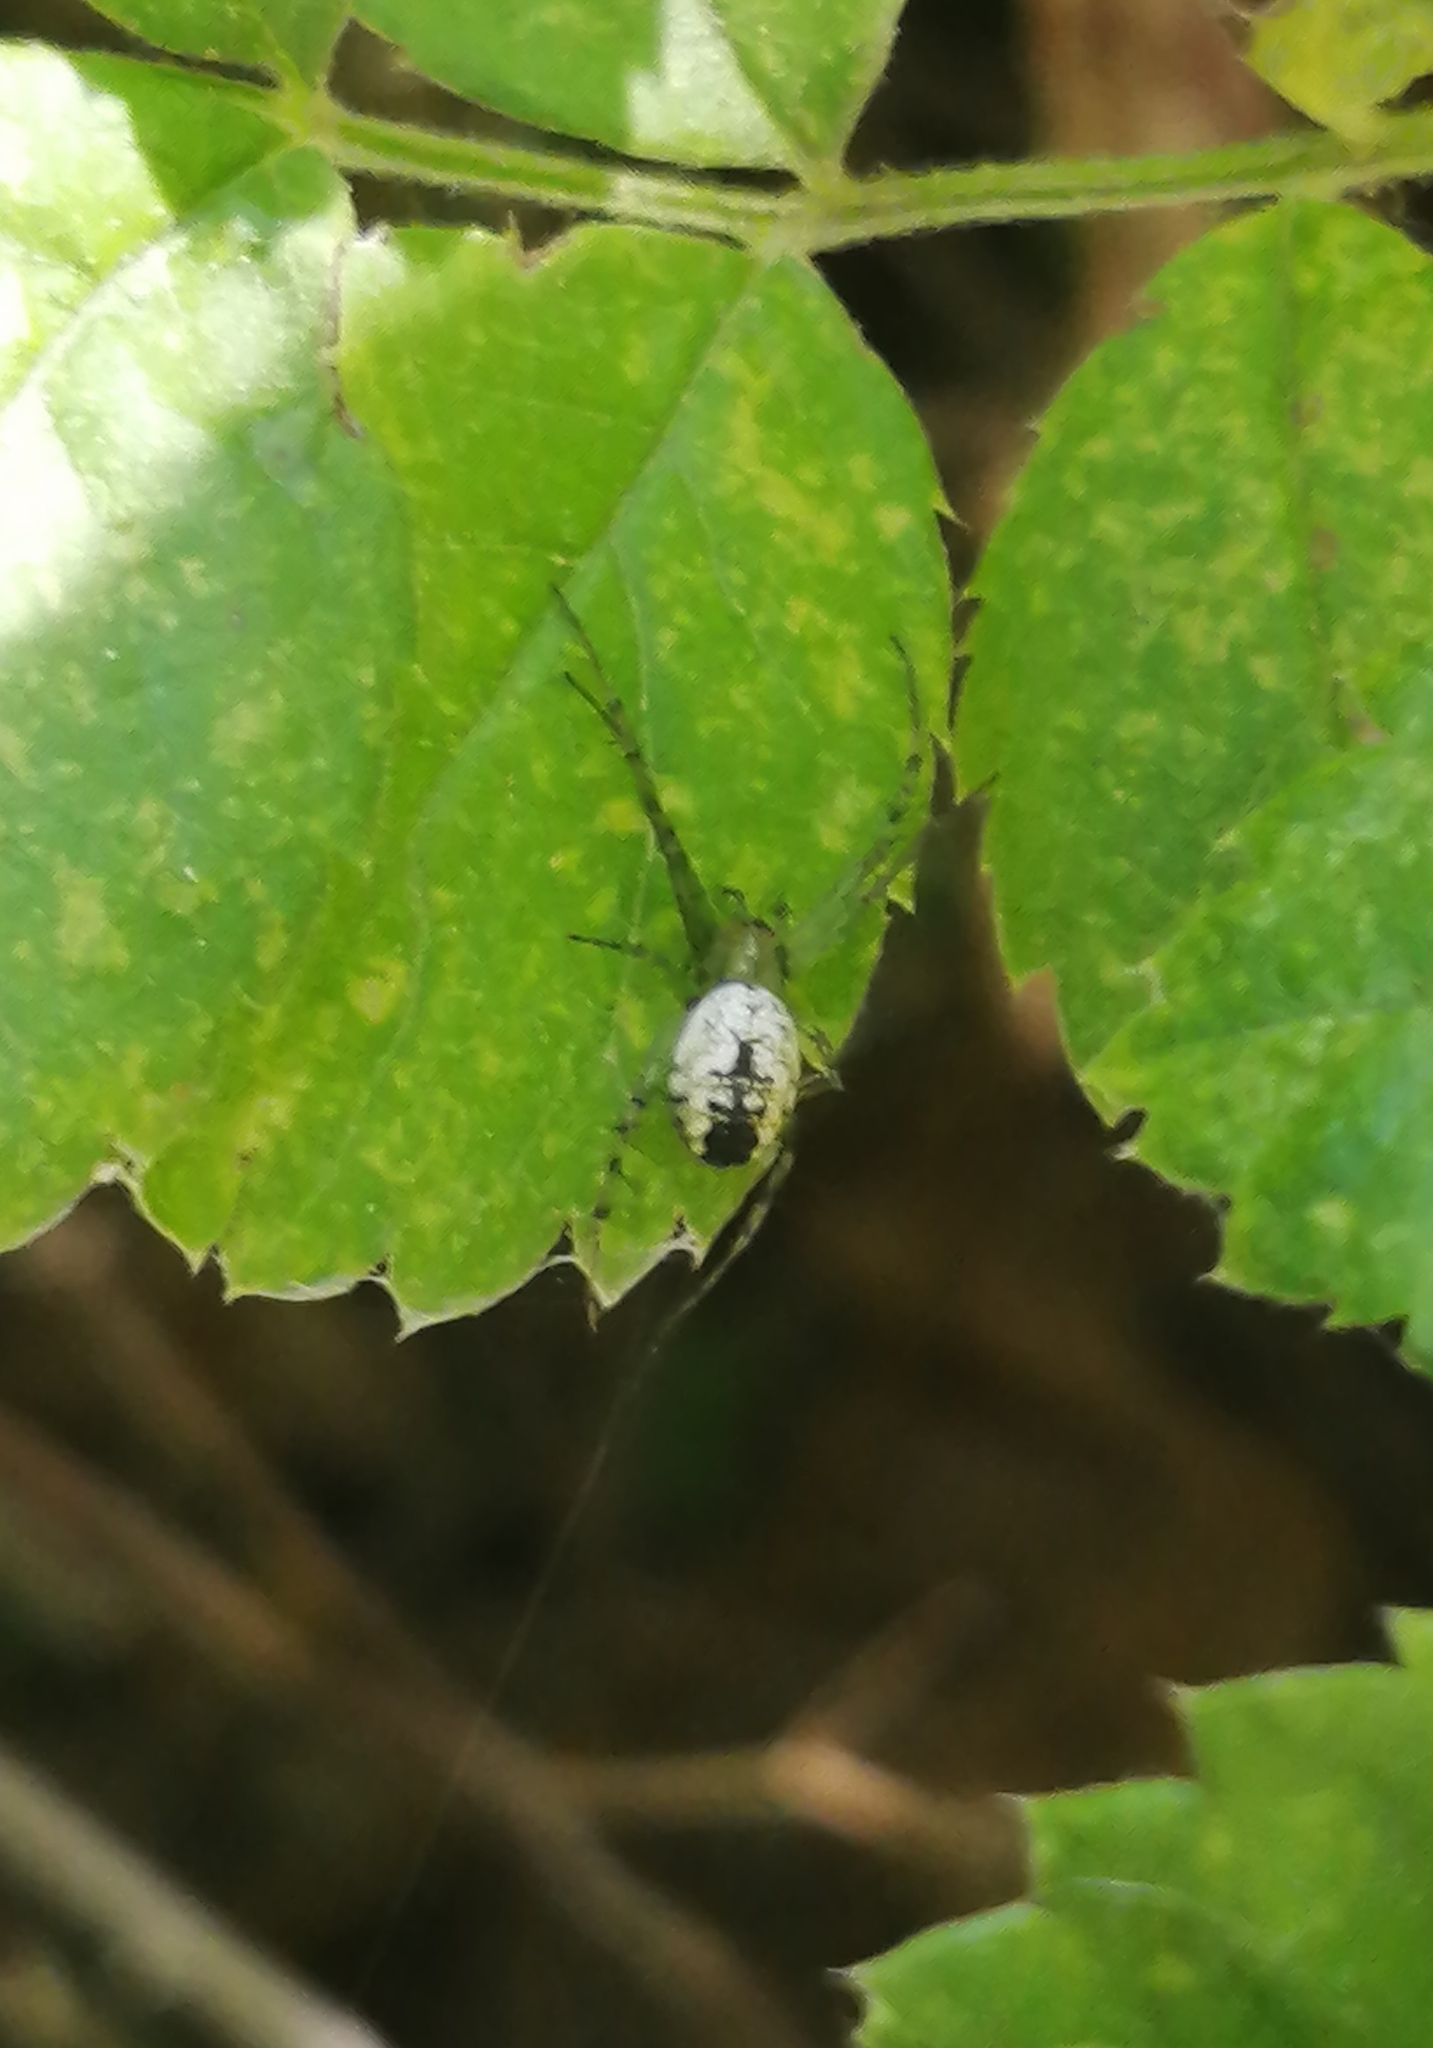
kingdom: Animalia
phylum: Arthropoda
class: Arachnida
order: Araneae
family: Araneidae
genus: Mangora
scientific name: Mangora maculata
